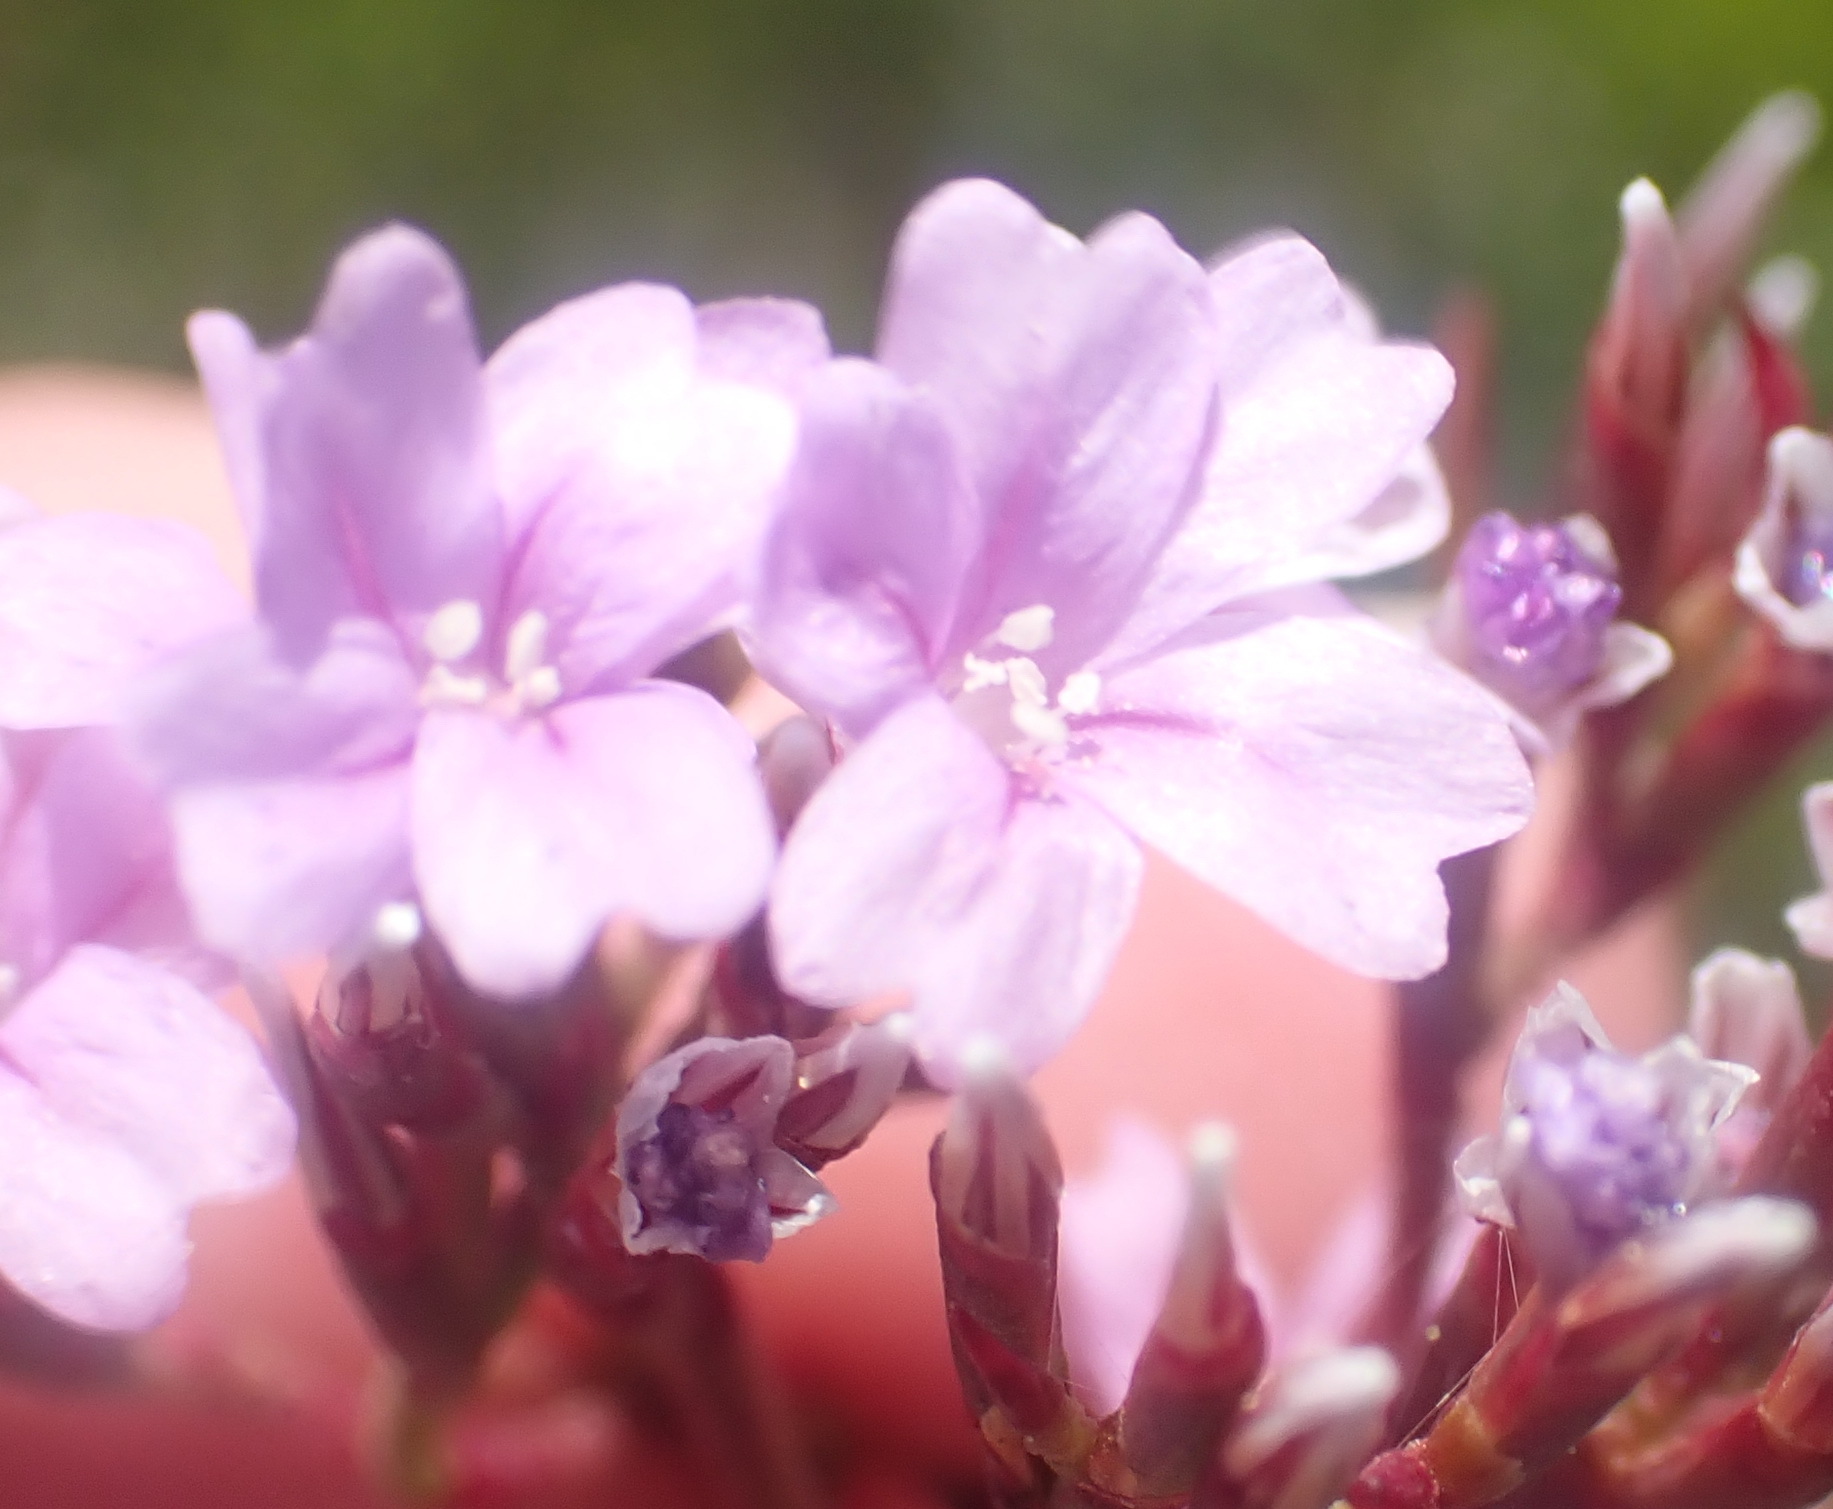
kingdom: Plantae
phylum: Tracheophyta
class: Magnoliopsida
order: Caryophyllales
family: Plumbaginaceae
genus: Limonium
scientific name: Limonium scabrum
